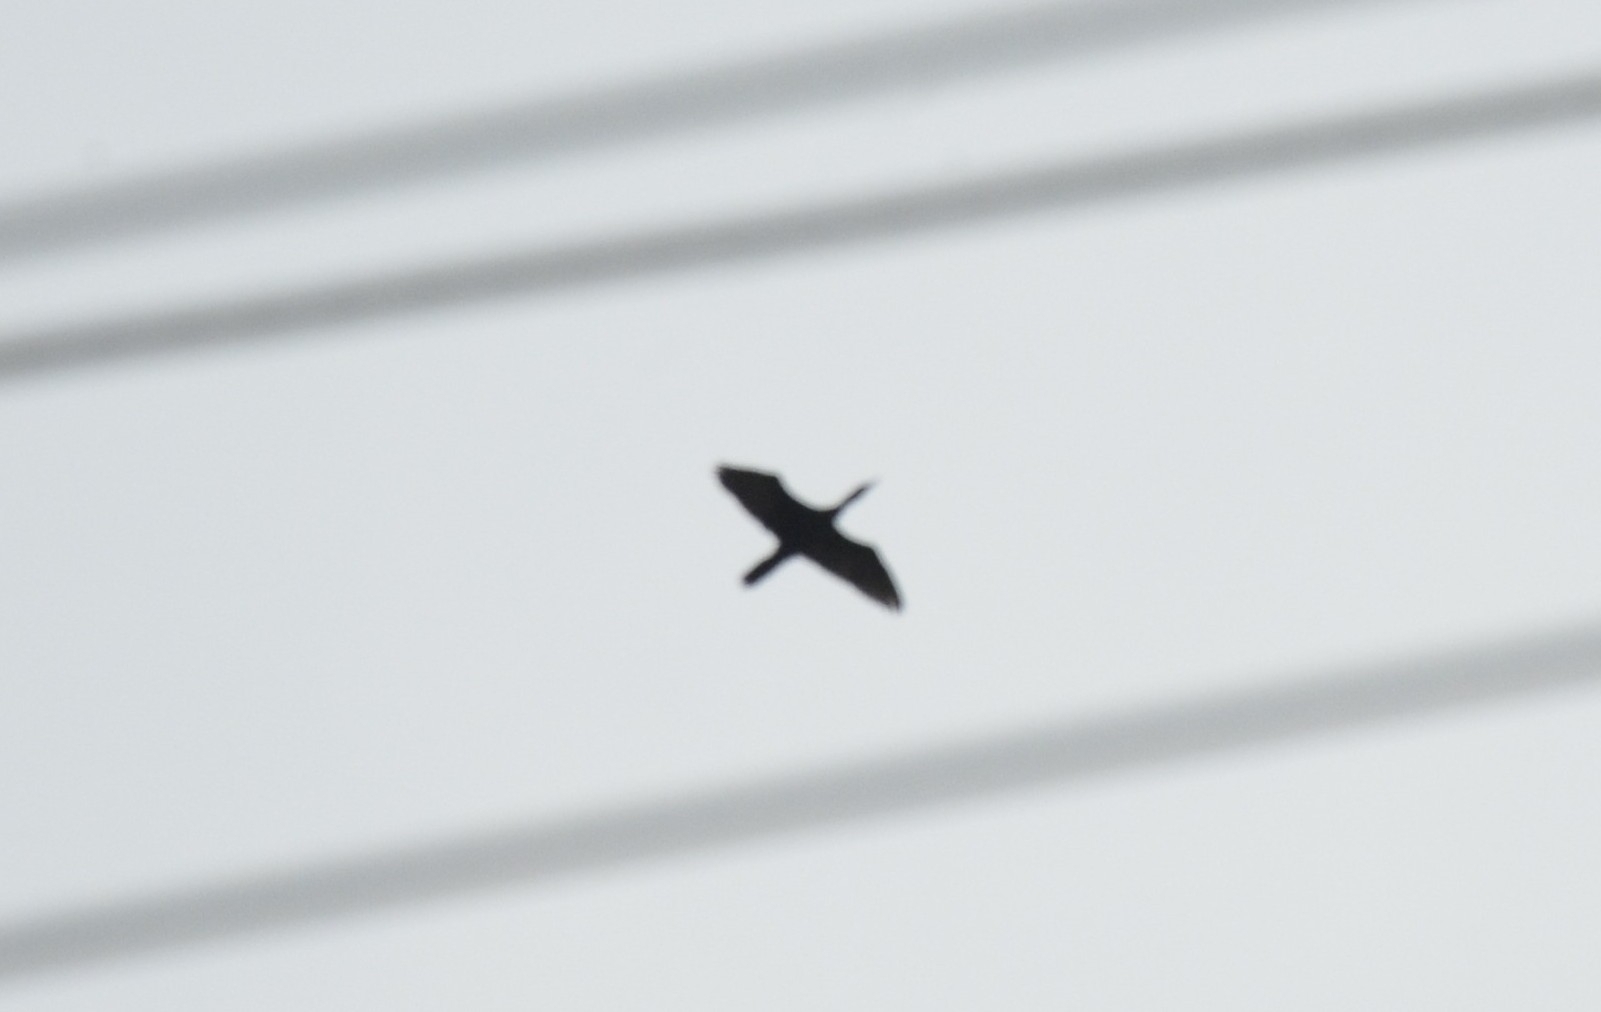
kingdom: Animalia
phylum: Chordata
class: Aves
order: Suliformes
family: Phalacrocoracidae
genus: Microcarbo
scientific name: Microcarbo niger
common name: Little cormorant
